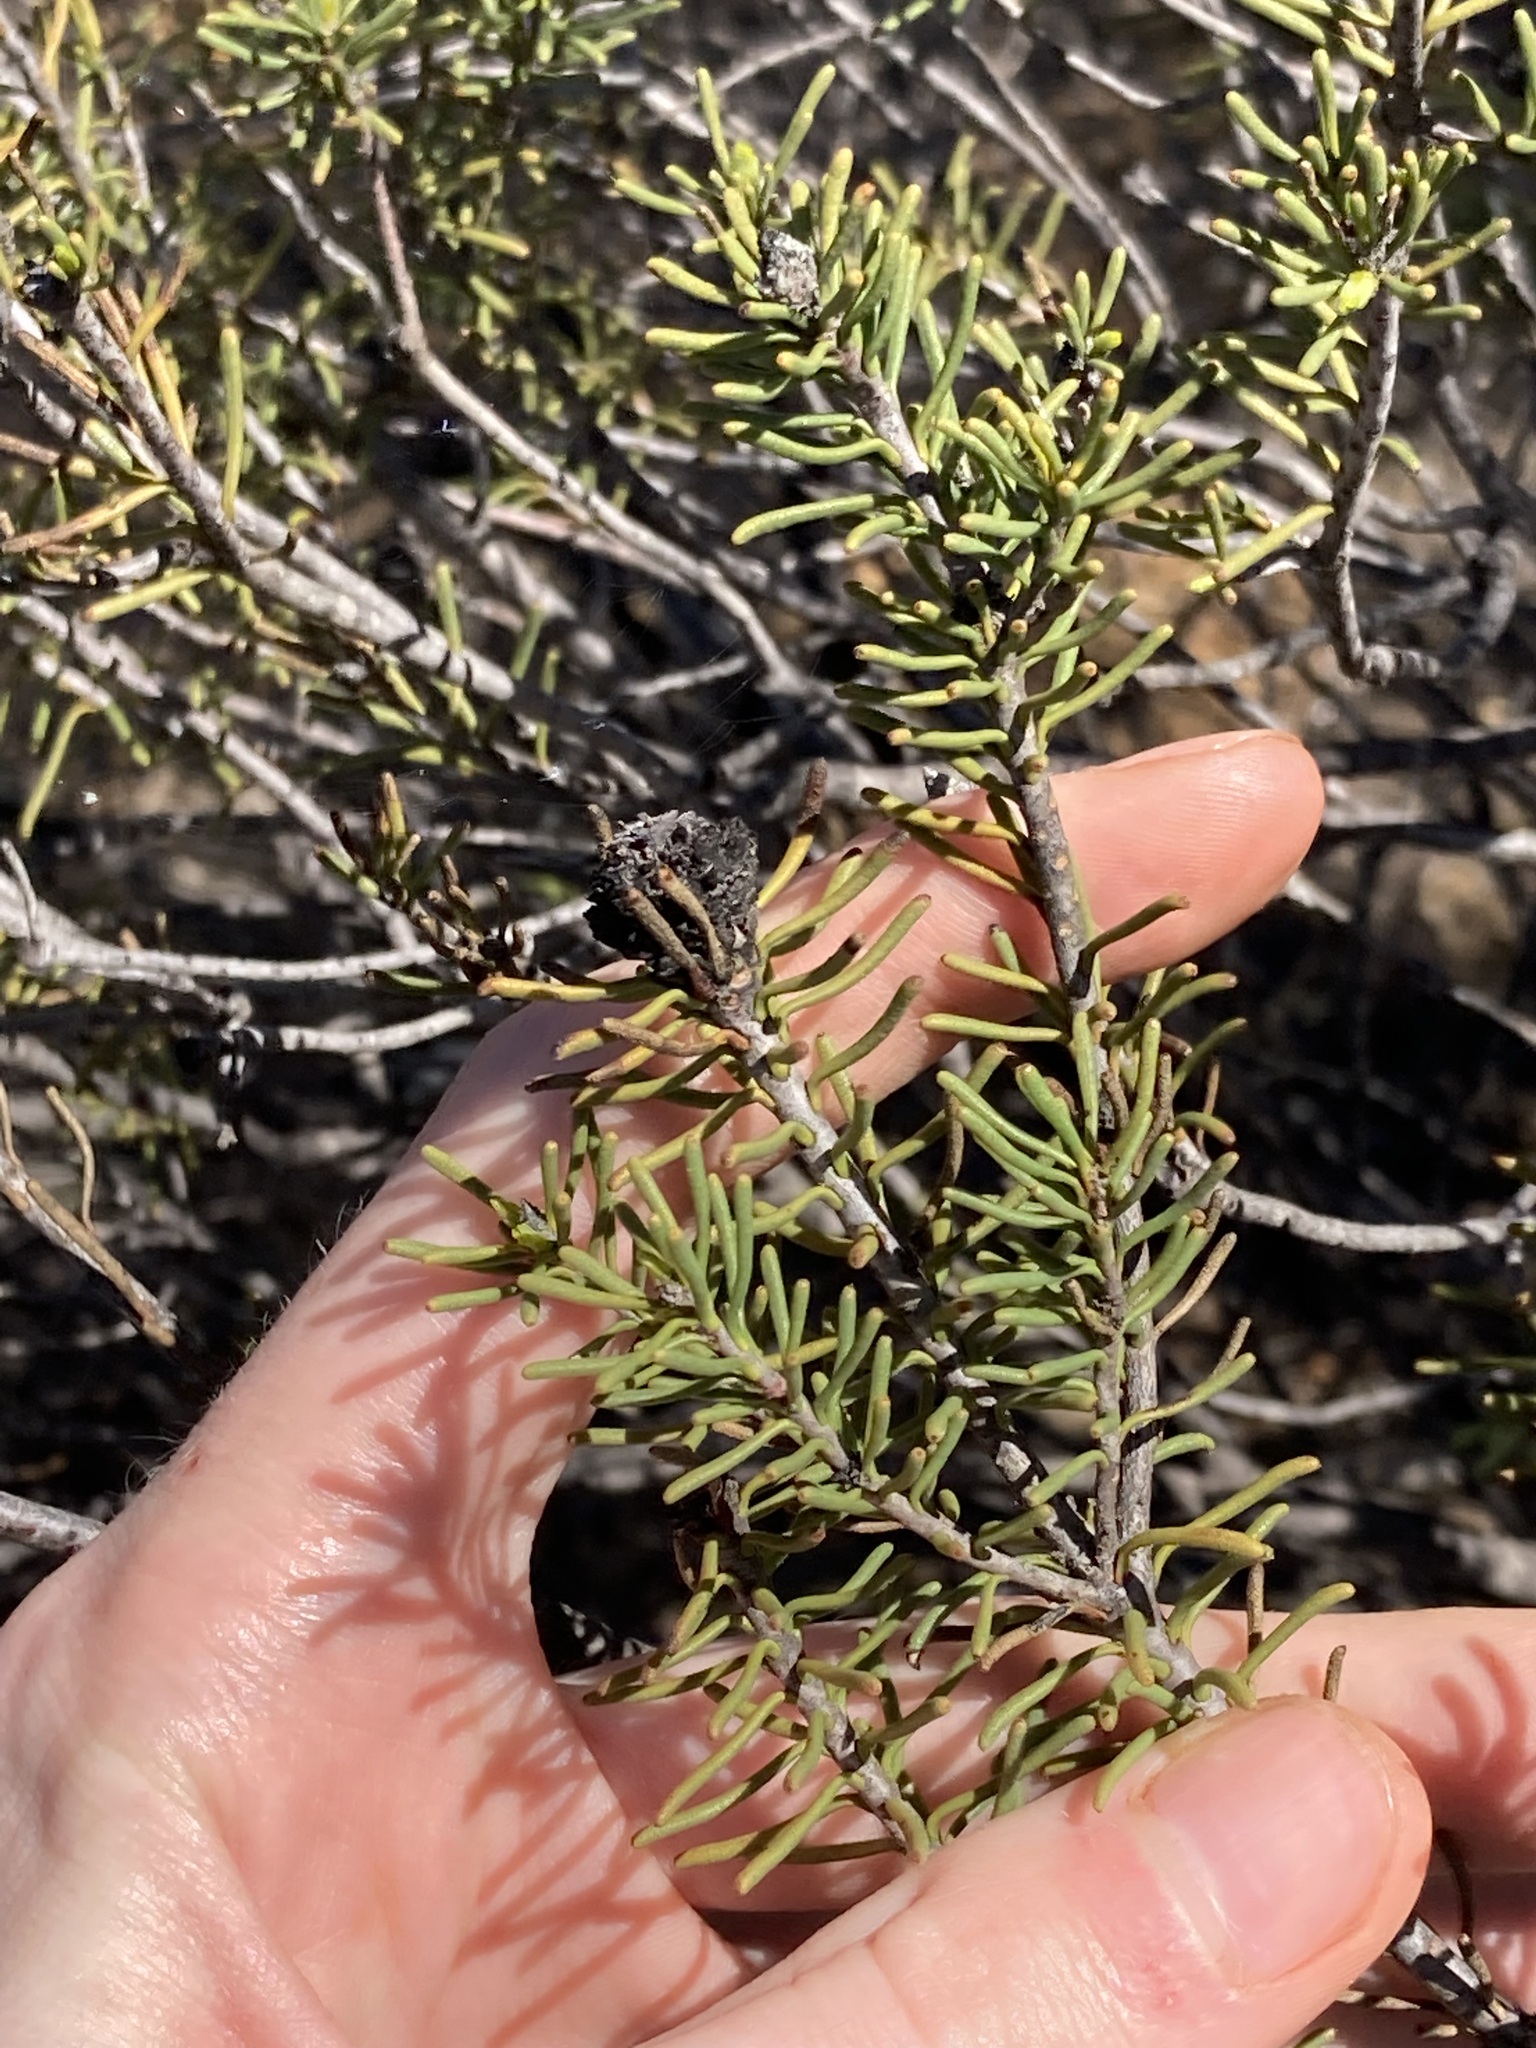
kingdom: Plantae
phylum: Tracheophyta
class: Magnoliopsida
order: Proteales
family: Proteaceae
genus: Petrophile
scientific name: Petrophile merrallii
